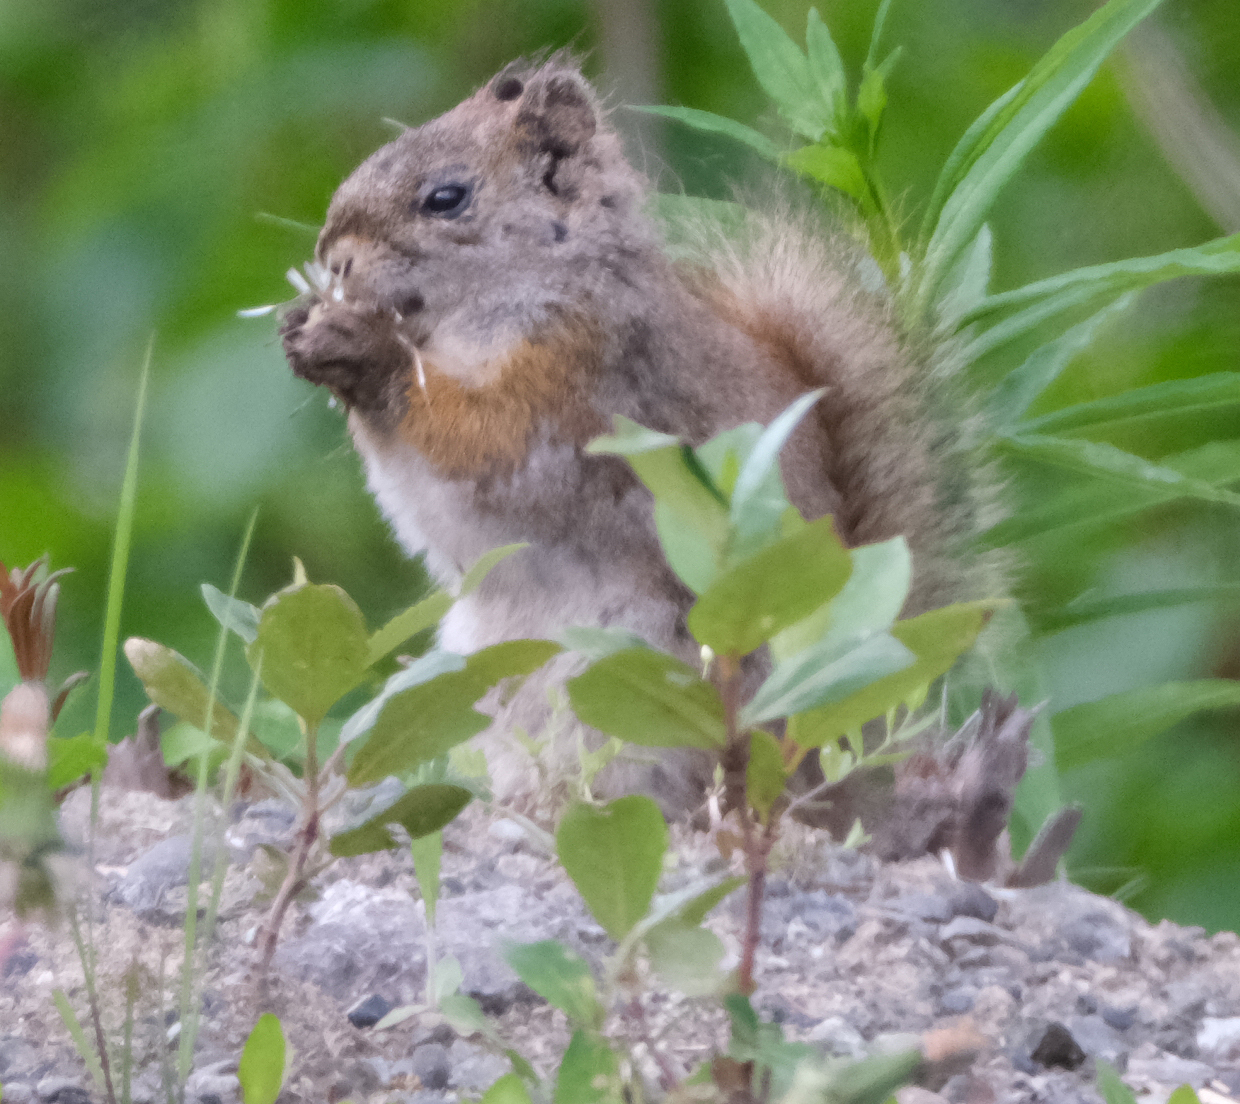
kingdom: Animalia
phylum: Chordata
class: Mammalia
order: Rodentia
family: Sciuridae
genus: Tamiasciurus
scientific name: Tamiasciurus hudsonicus
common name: Red squirrel
